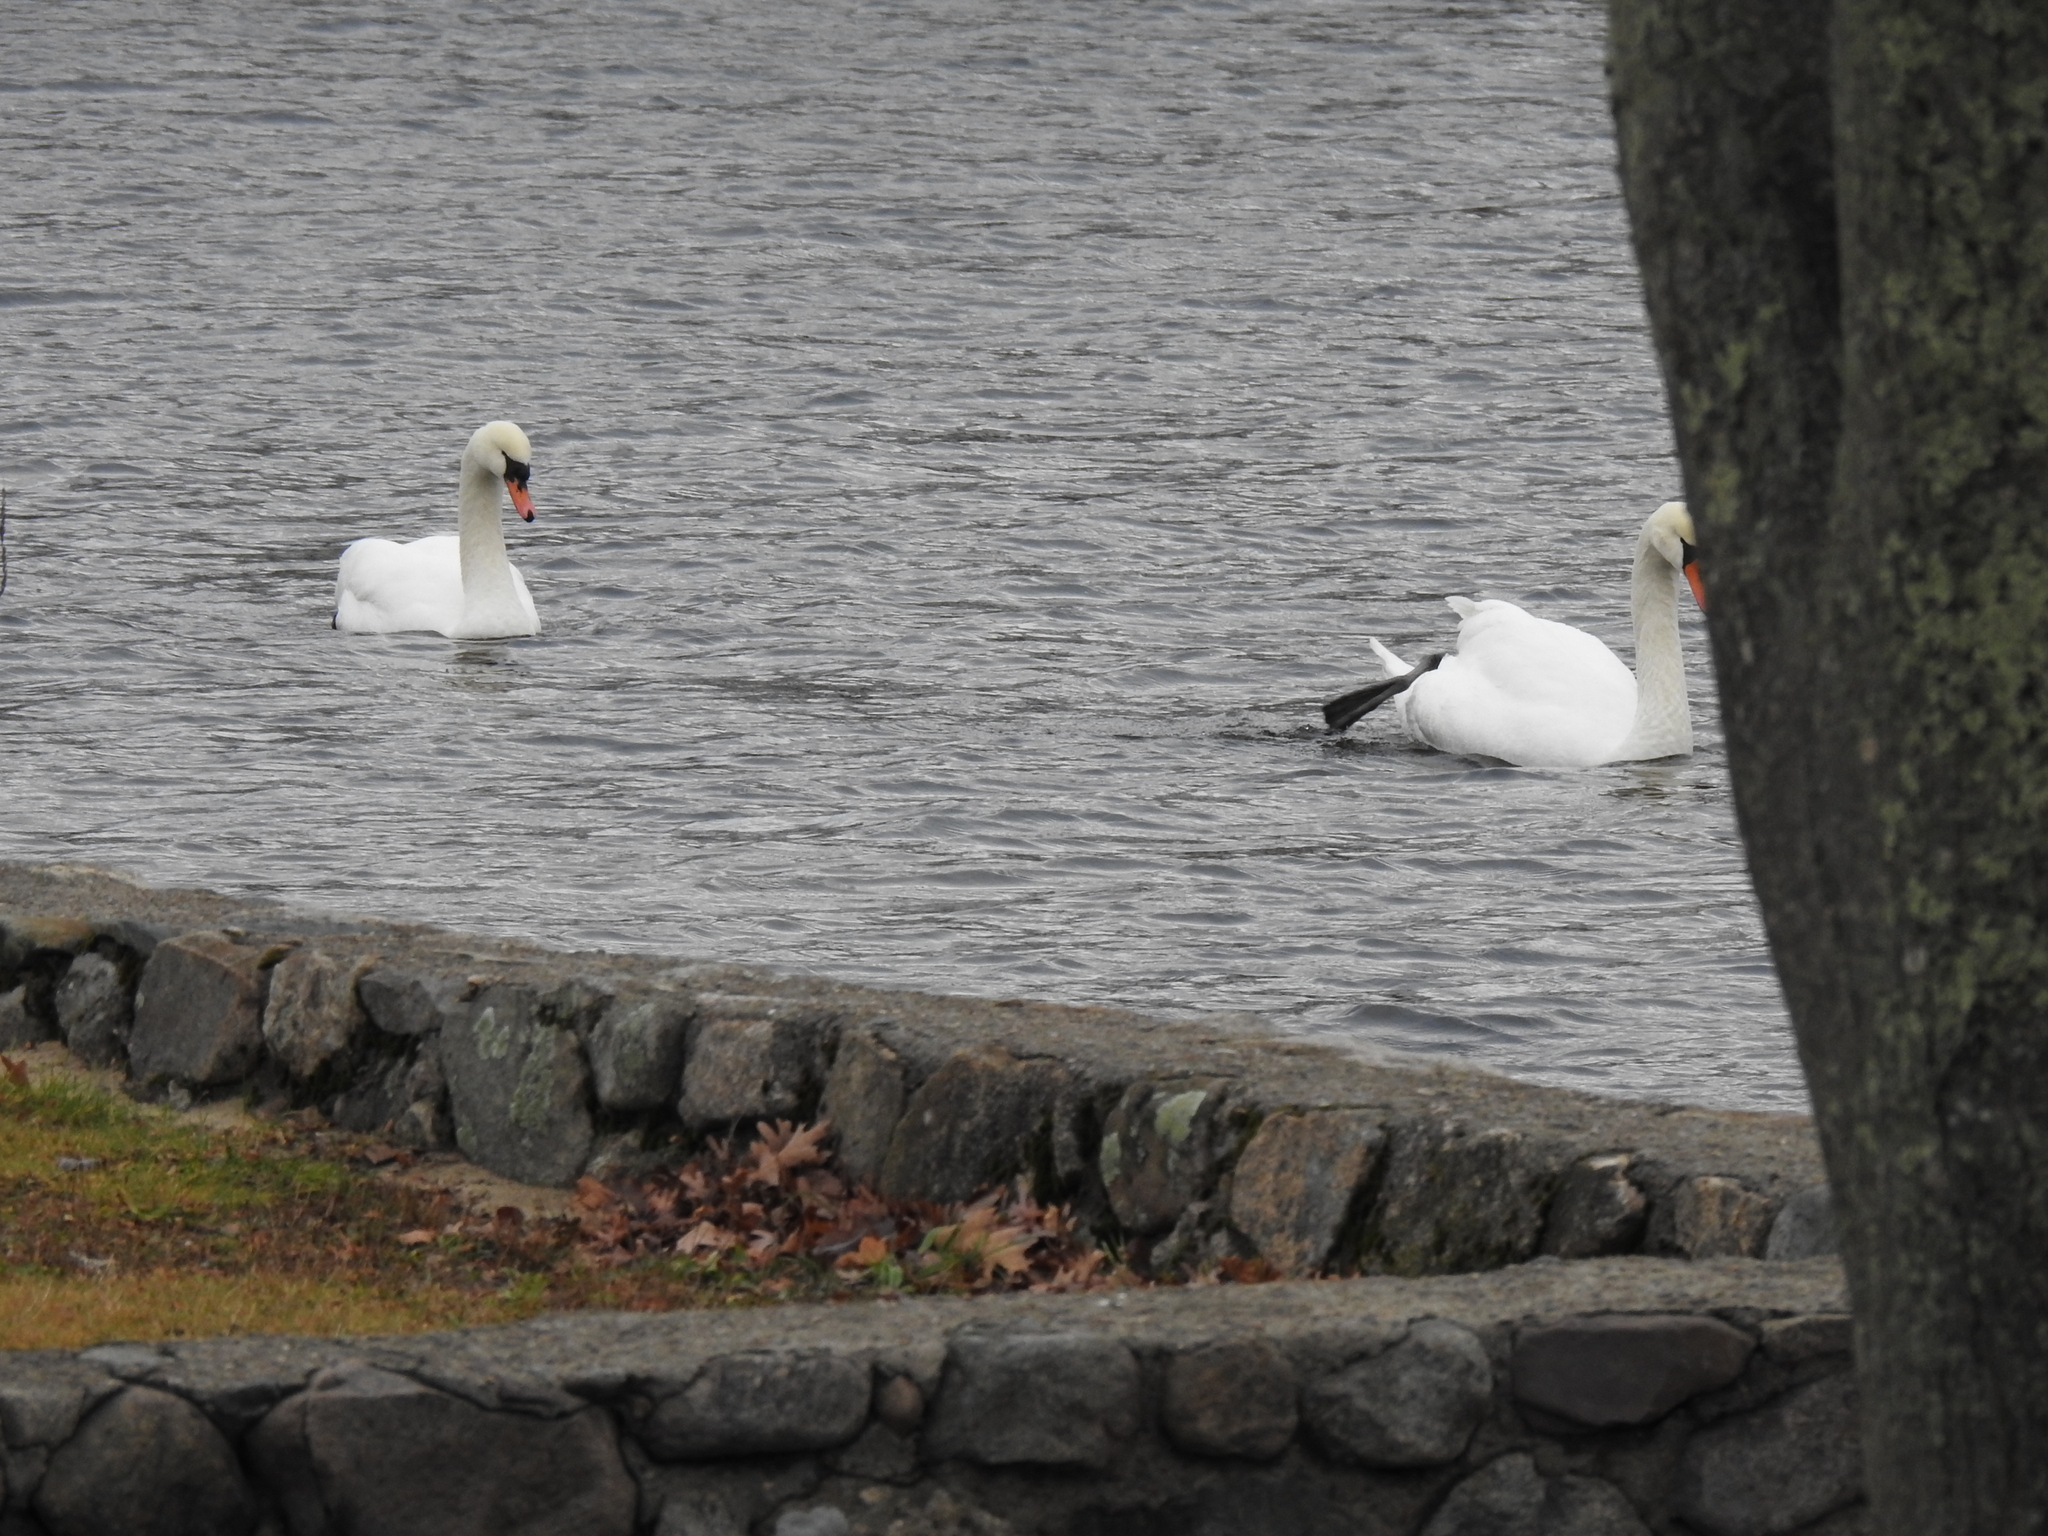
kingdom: Animalia
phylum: Chordata
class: Aves
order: Anseriformes
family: Anatidae
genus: Cygnus
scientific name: Cygnus olor
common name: Mute swan
